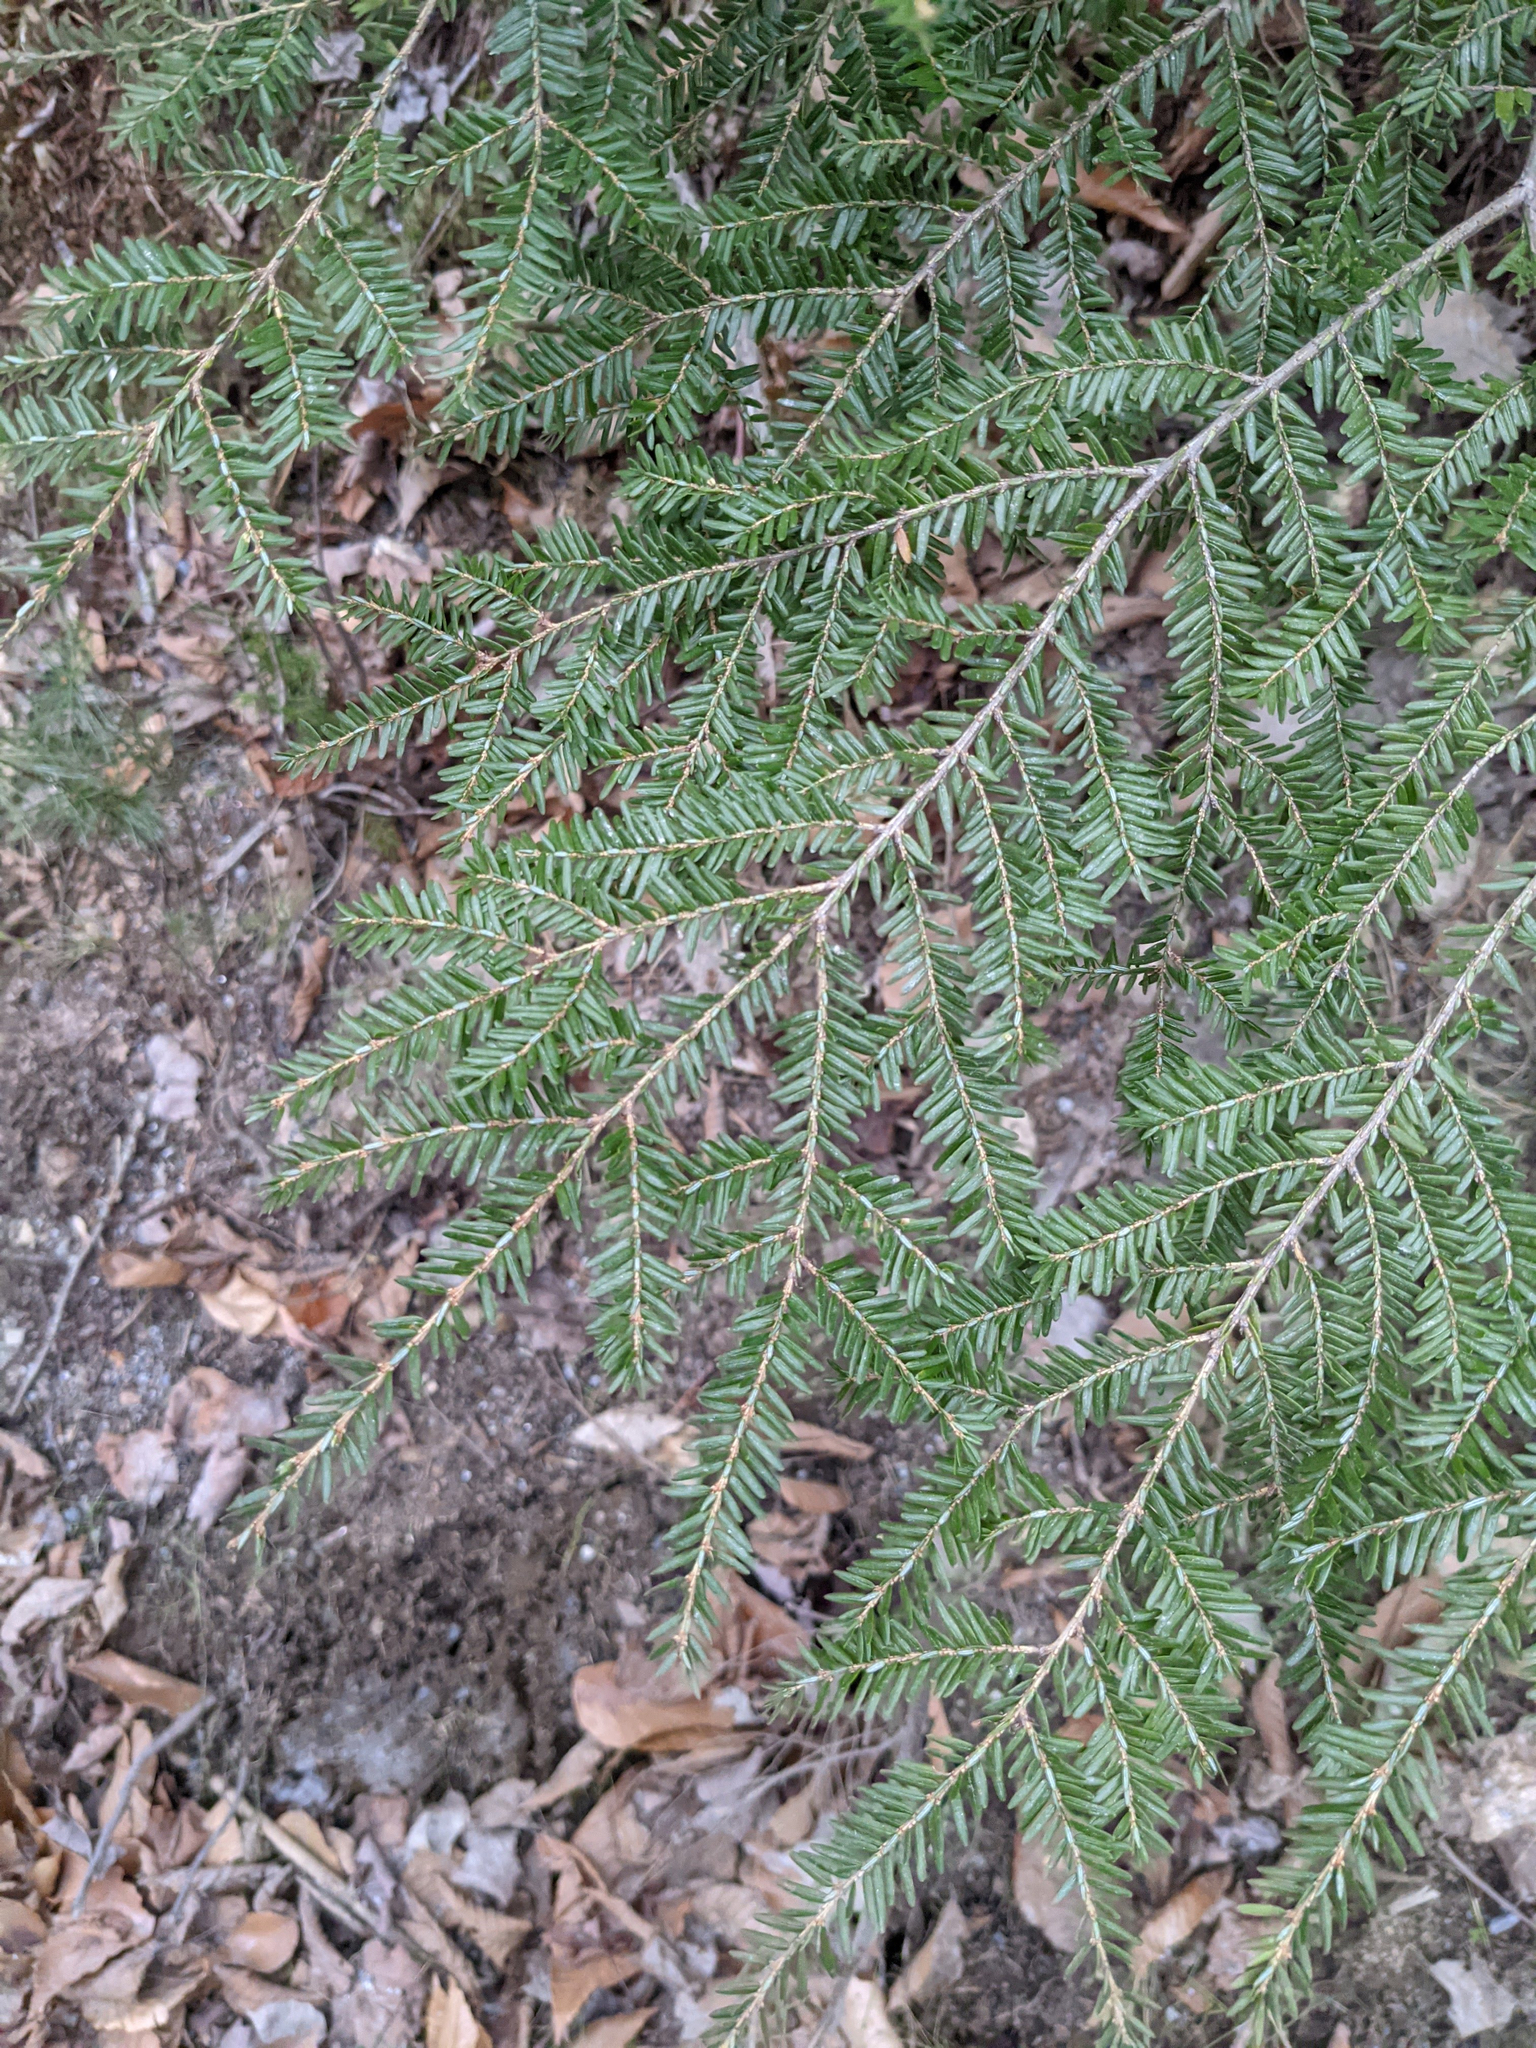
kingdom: Plantae
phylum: Tracheophyta
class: Pinopsida
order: Pinales
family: Pinaceae
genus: Tsuga
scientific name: Tsuga canadensis
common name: Eastern hemlock
